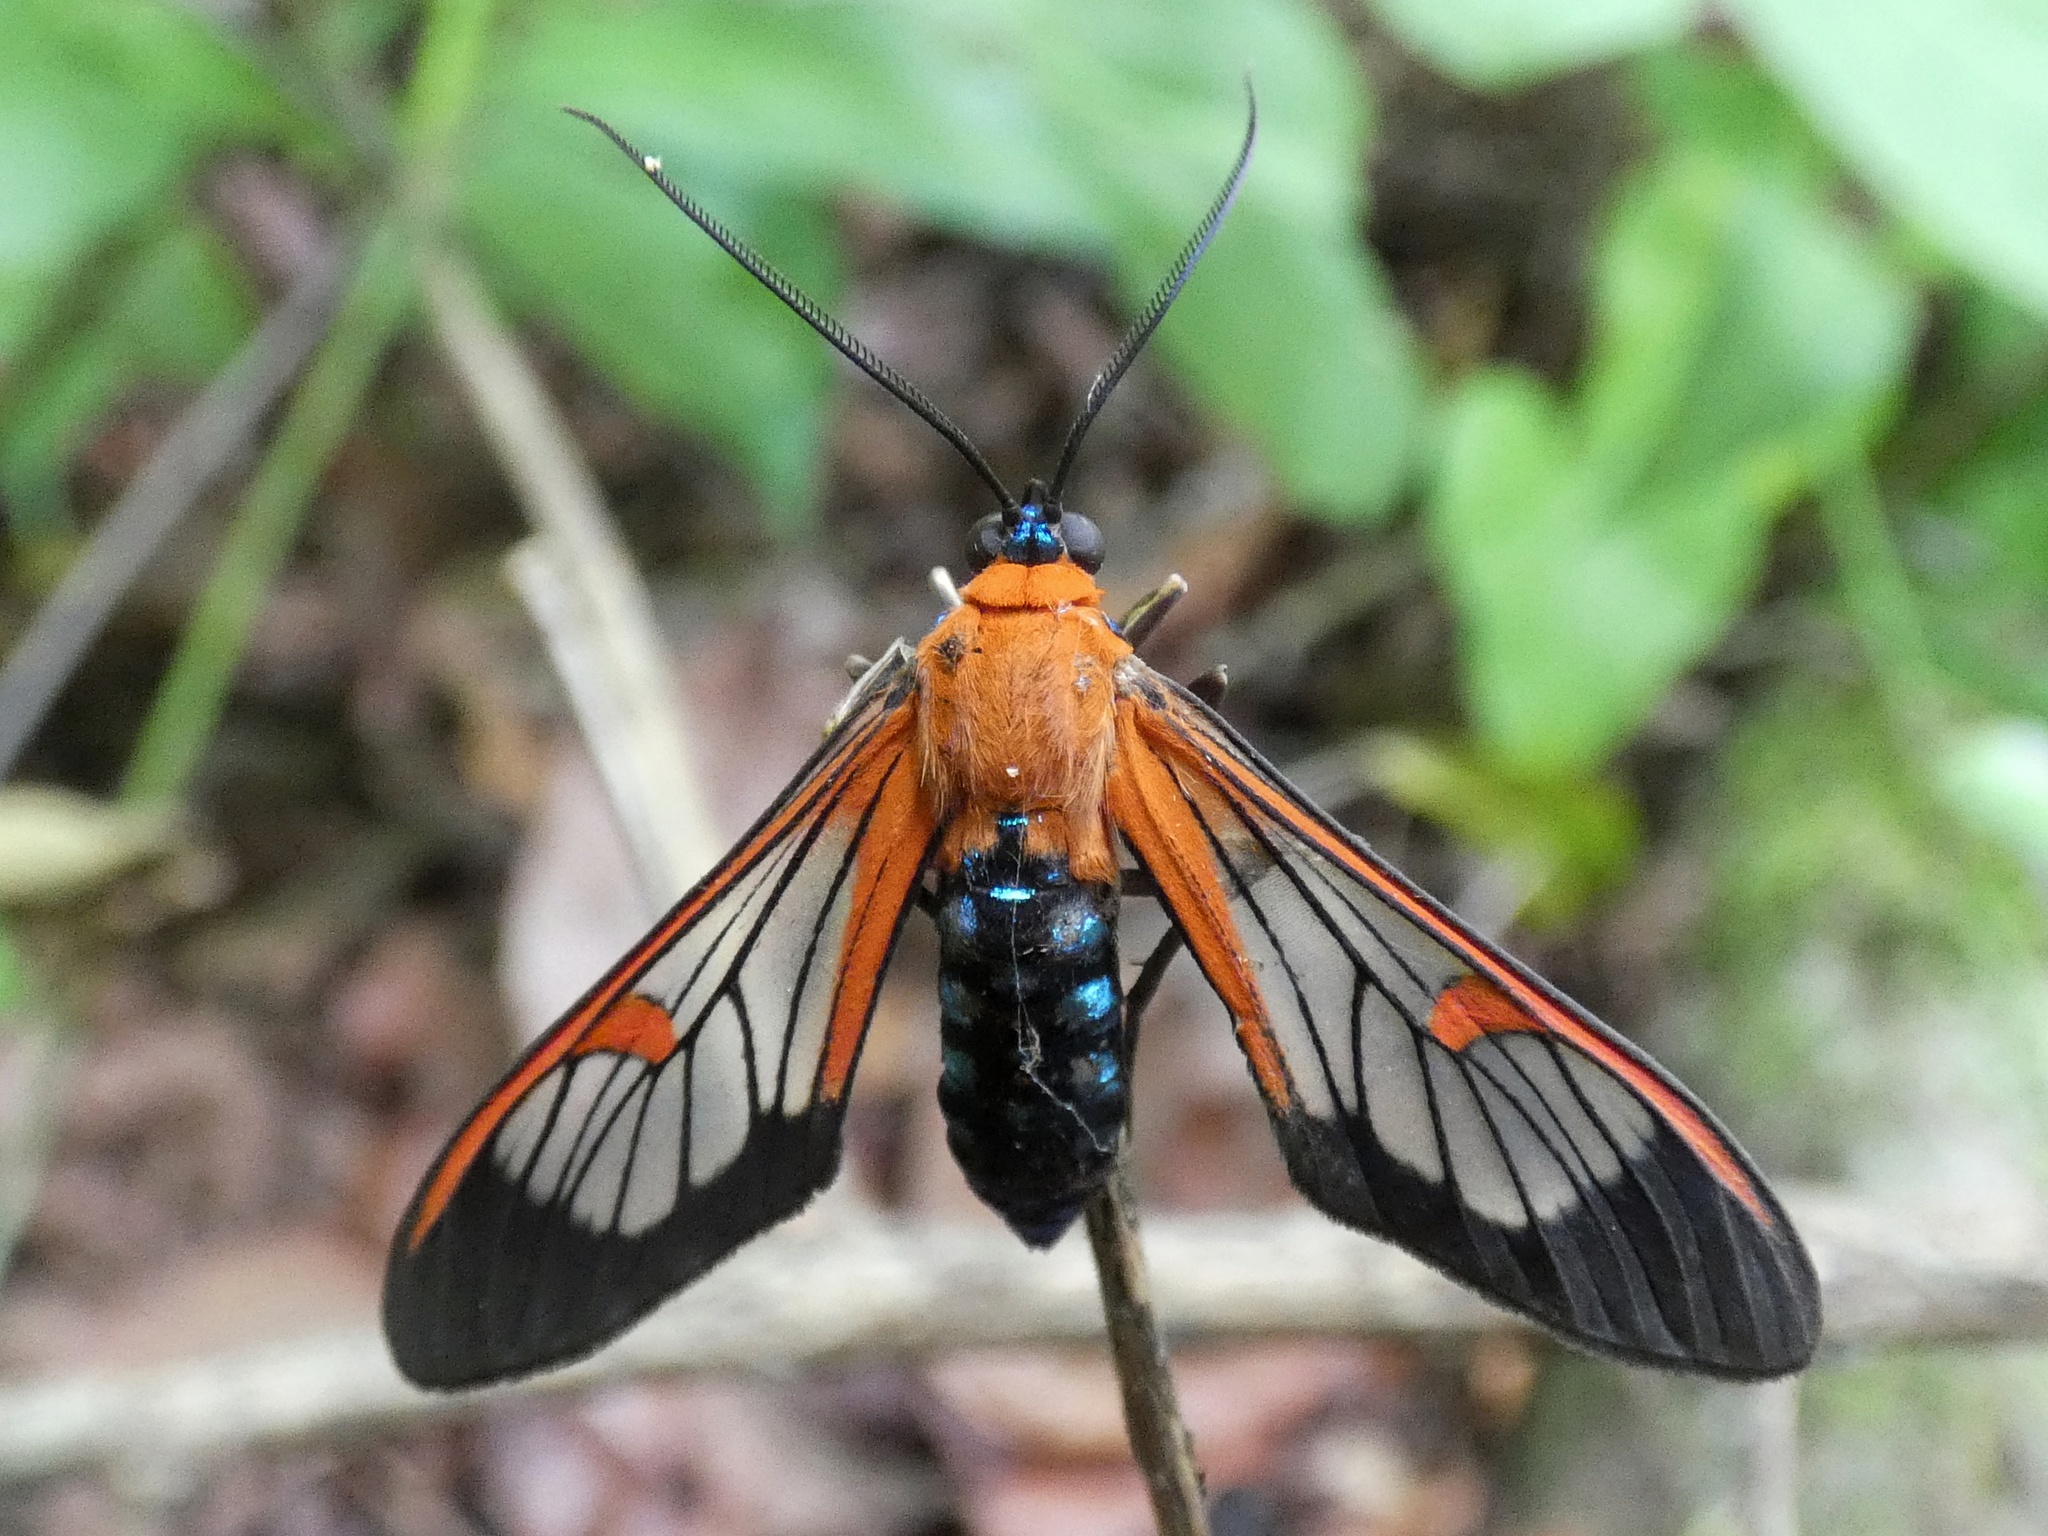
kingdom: Animalia
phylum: Arthropoda
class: Insecta
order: Lepidoptera
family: Erebidae
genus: Lepidoneiva
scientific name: Lepidoneiva teuthras
